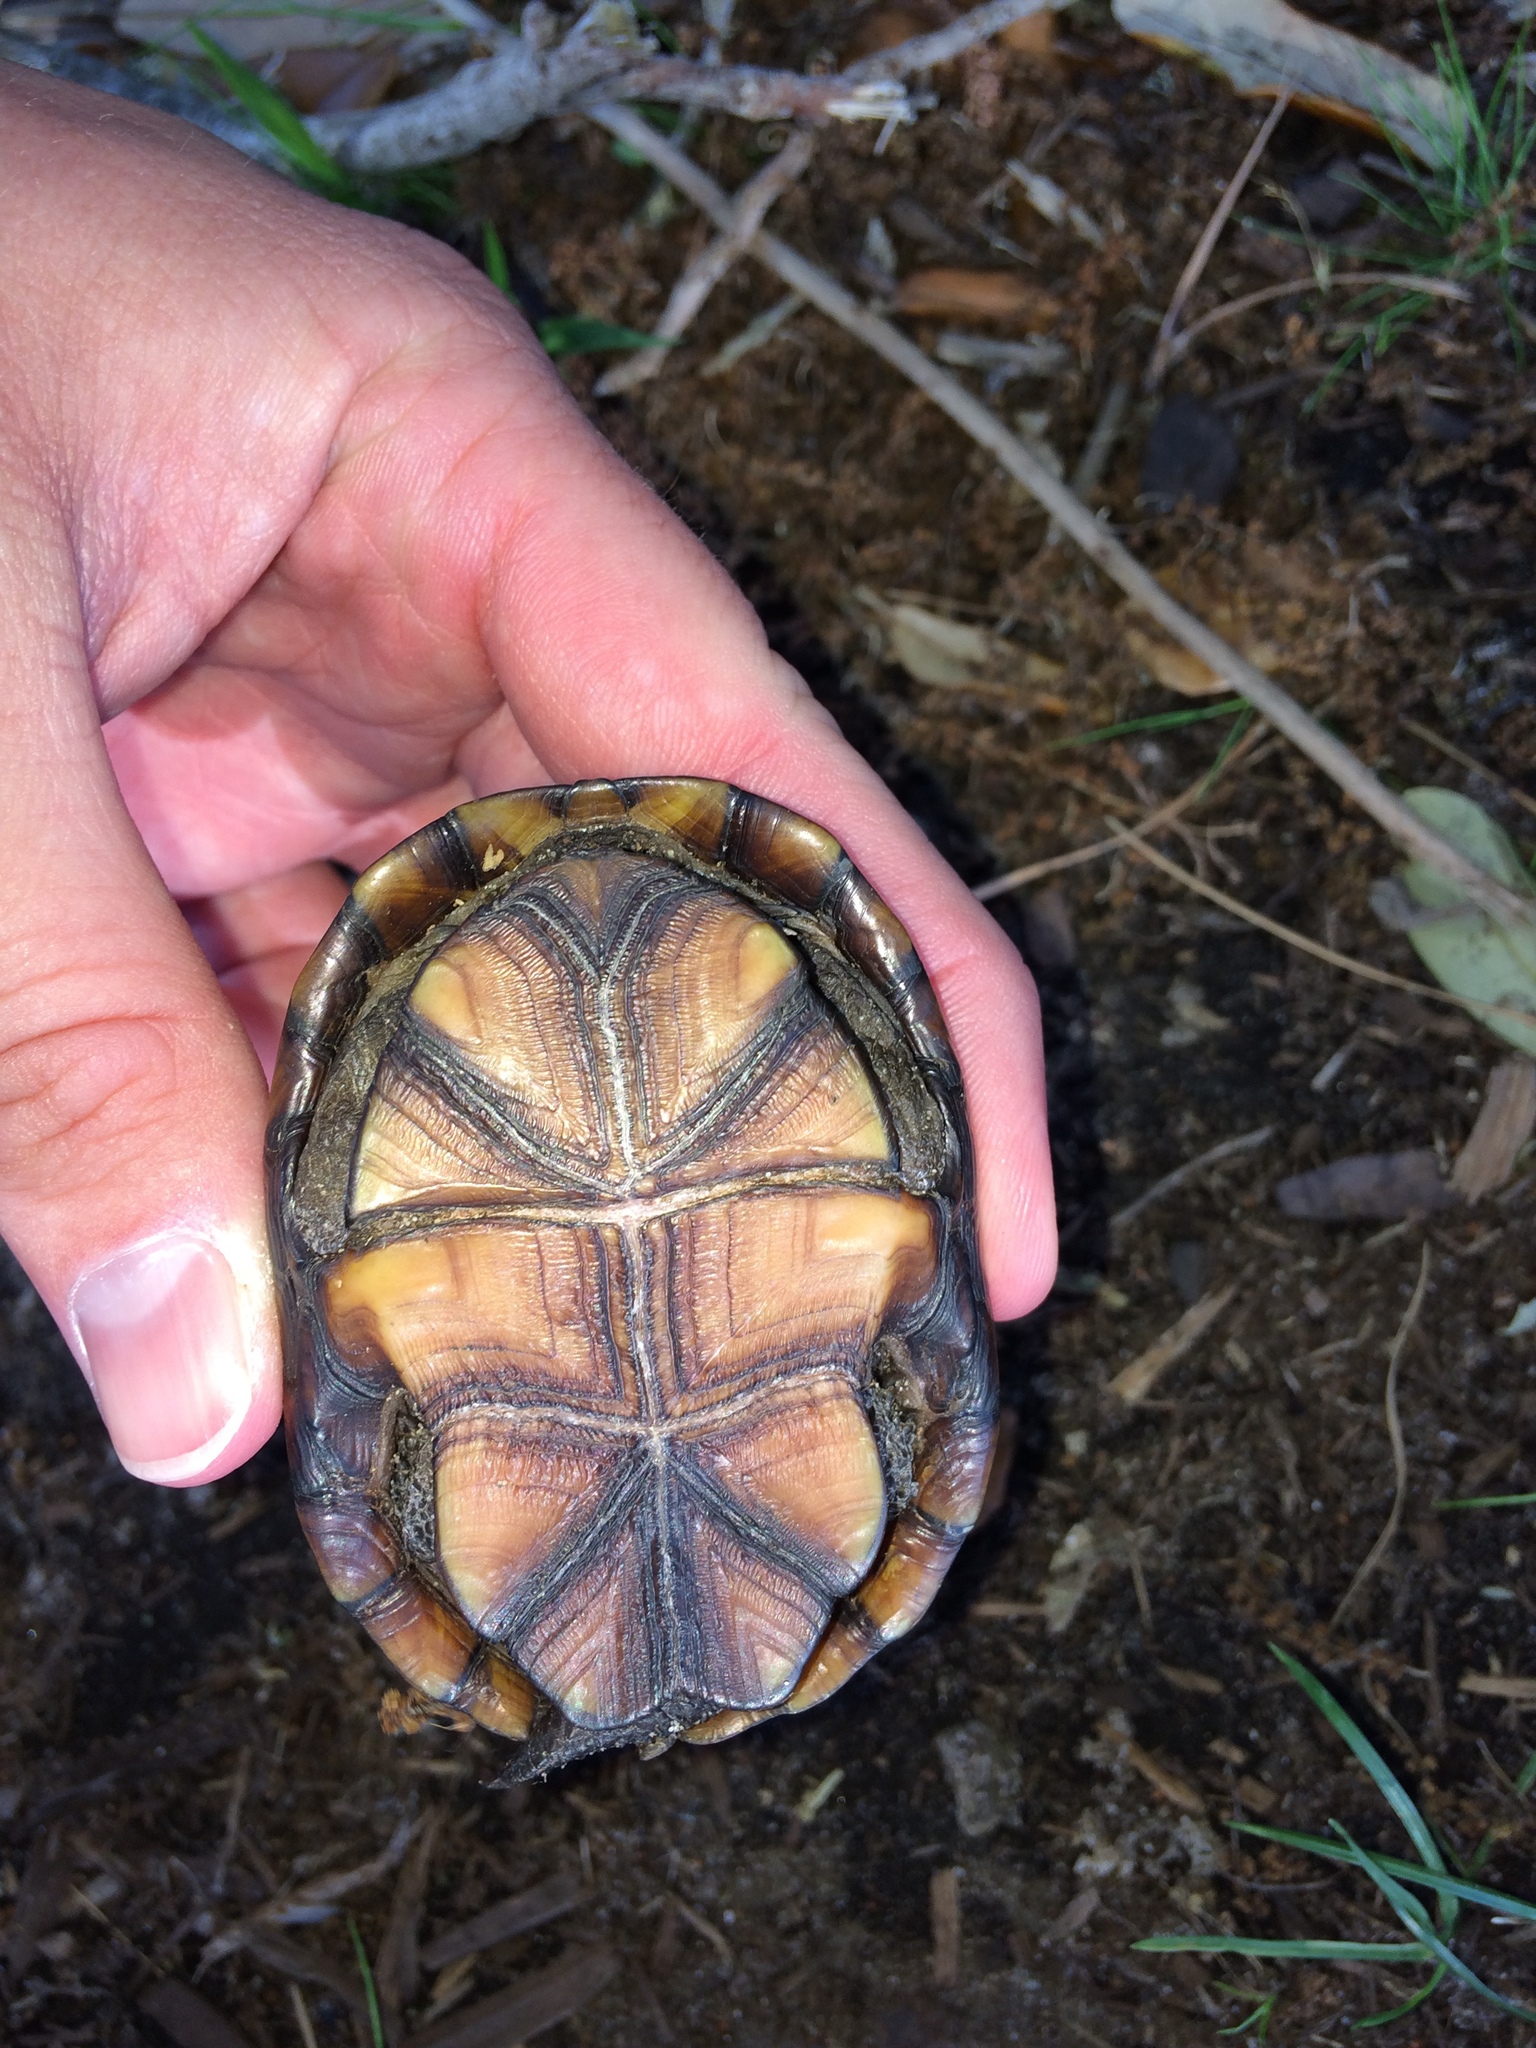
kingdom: Animalia
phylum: Chordata
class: Testudines
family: Kinosternidae
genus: Kinosternon
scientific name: Kinosternon subrubrum
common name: Eastern mud turtle
